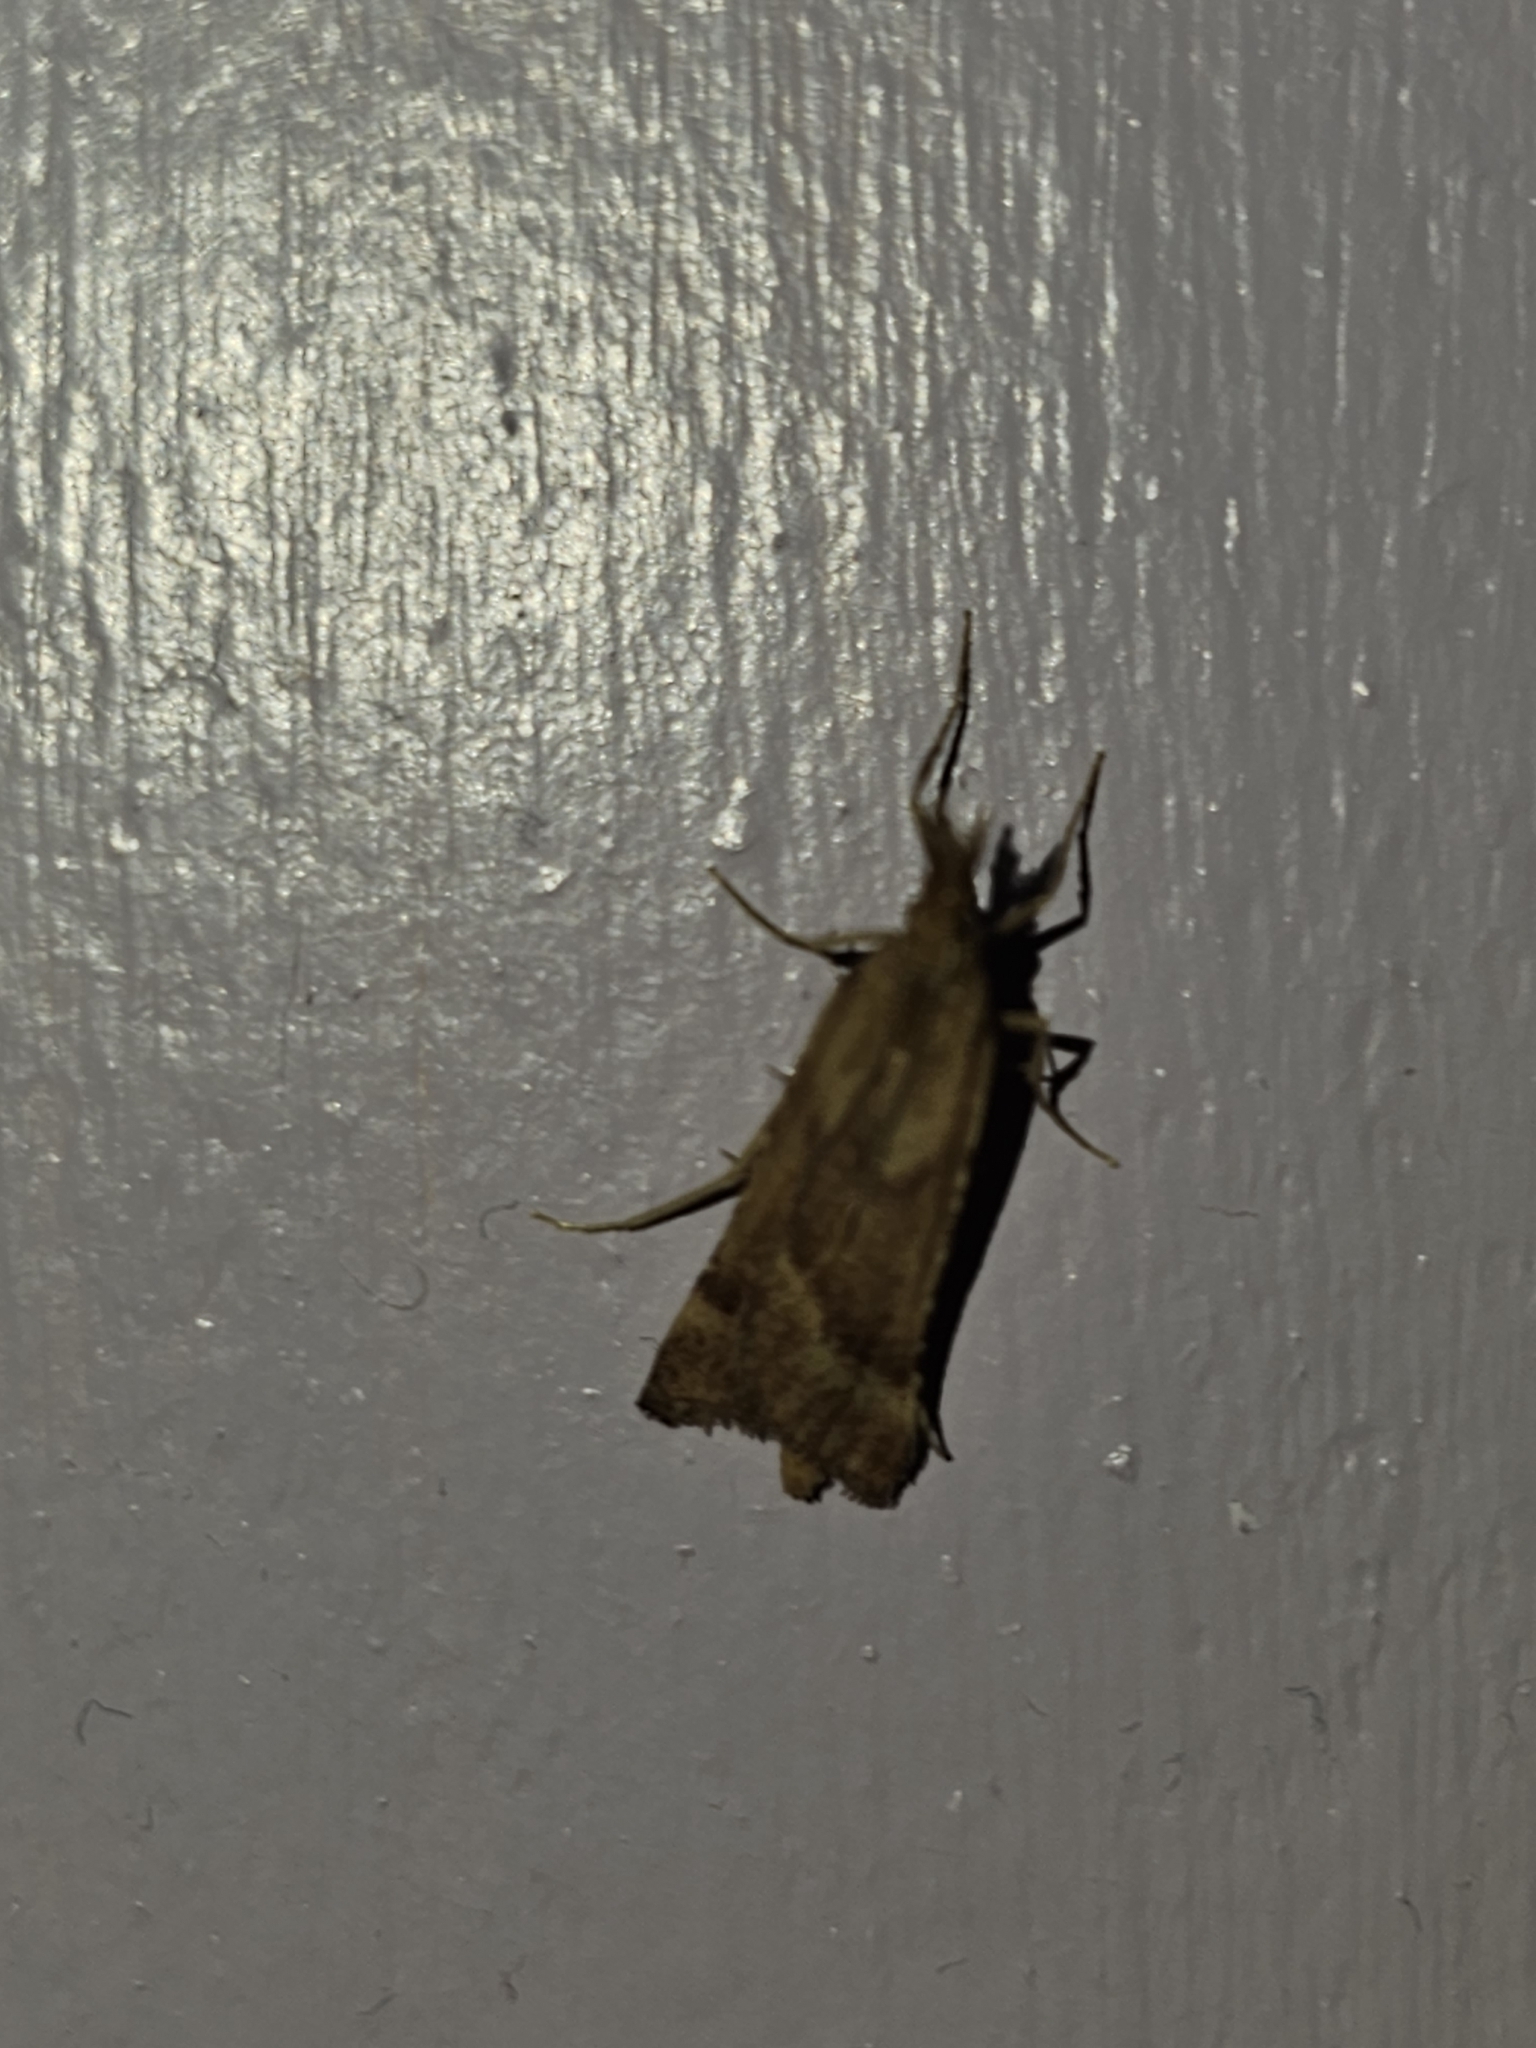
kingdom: Animalia
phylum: Arthropoda
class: Insecta
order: Lepidoptera
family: Pyralidae
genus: Synaphe
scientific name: Synaphe punctalis
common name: Long-legged tabby
